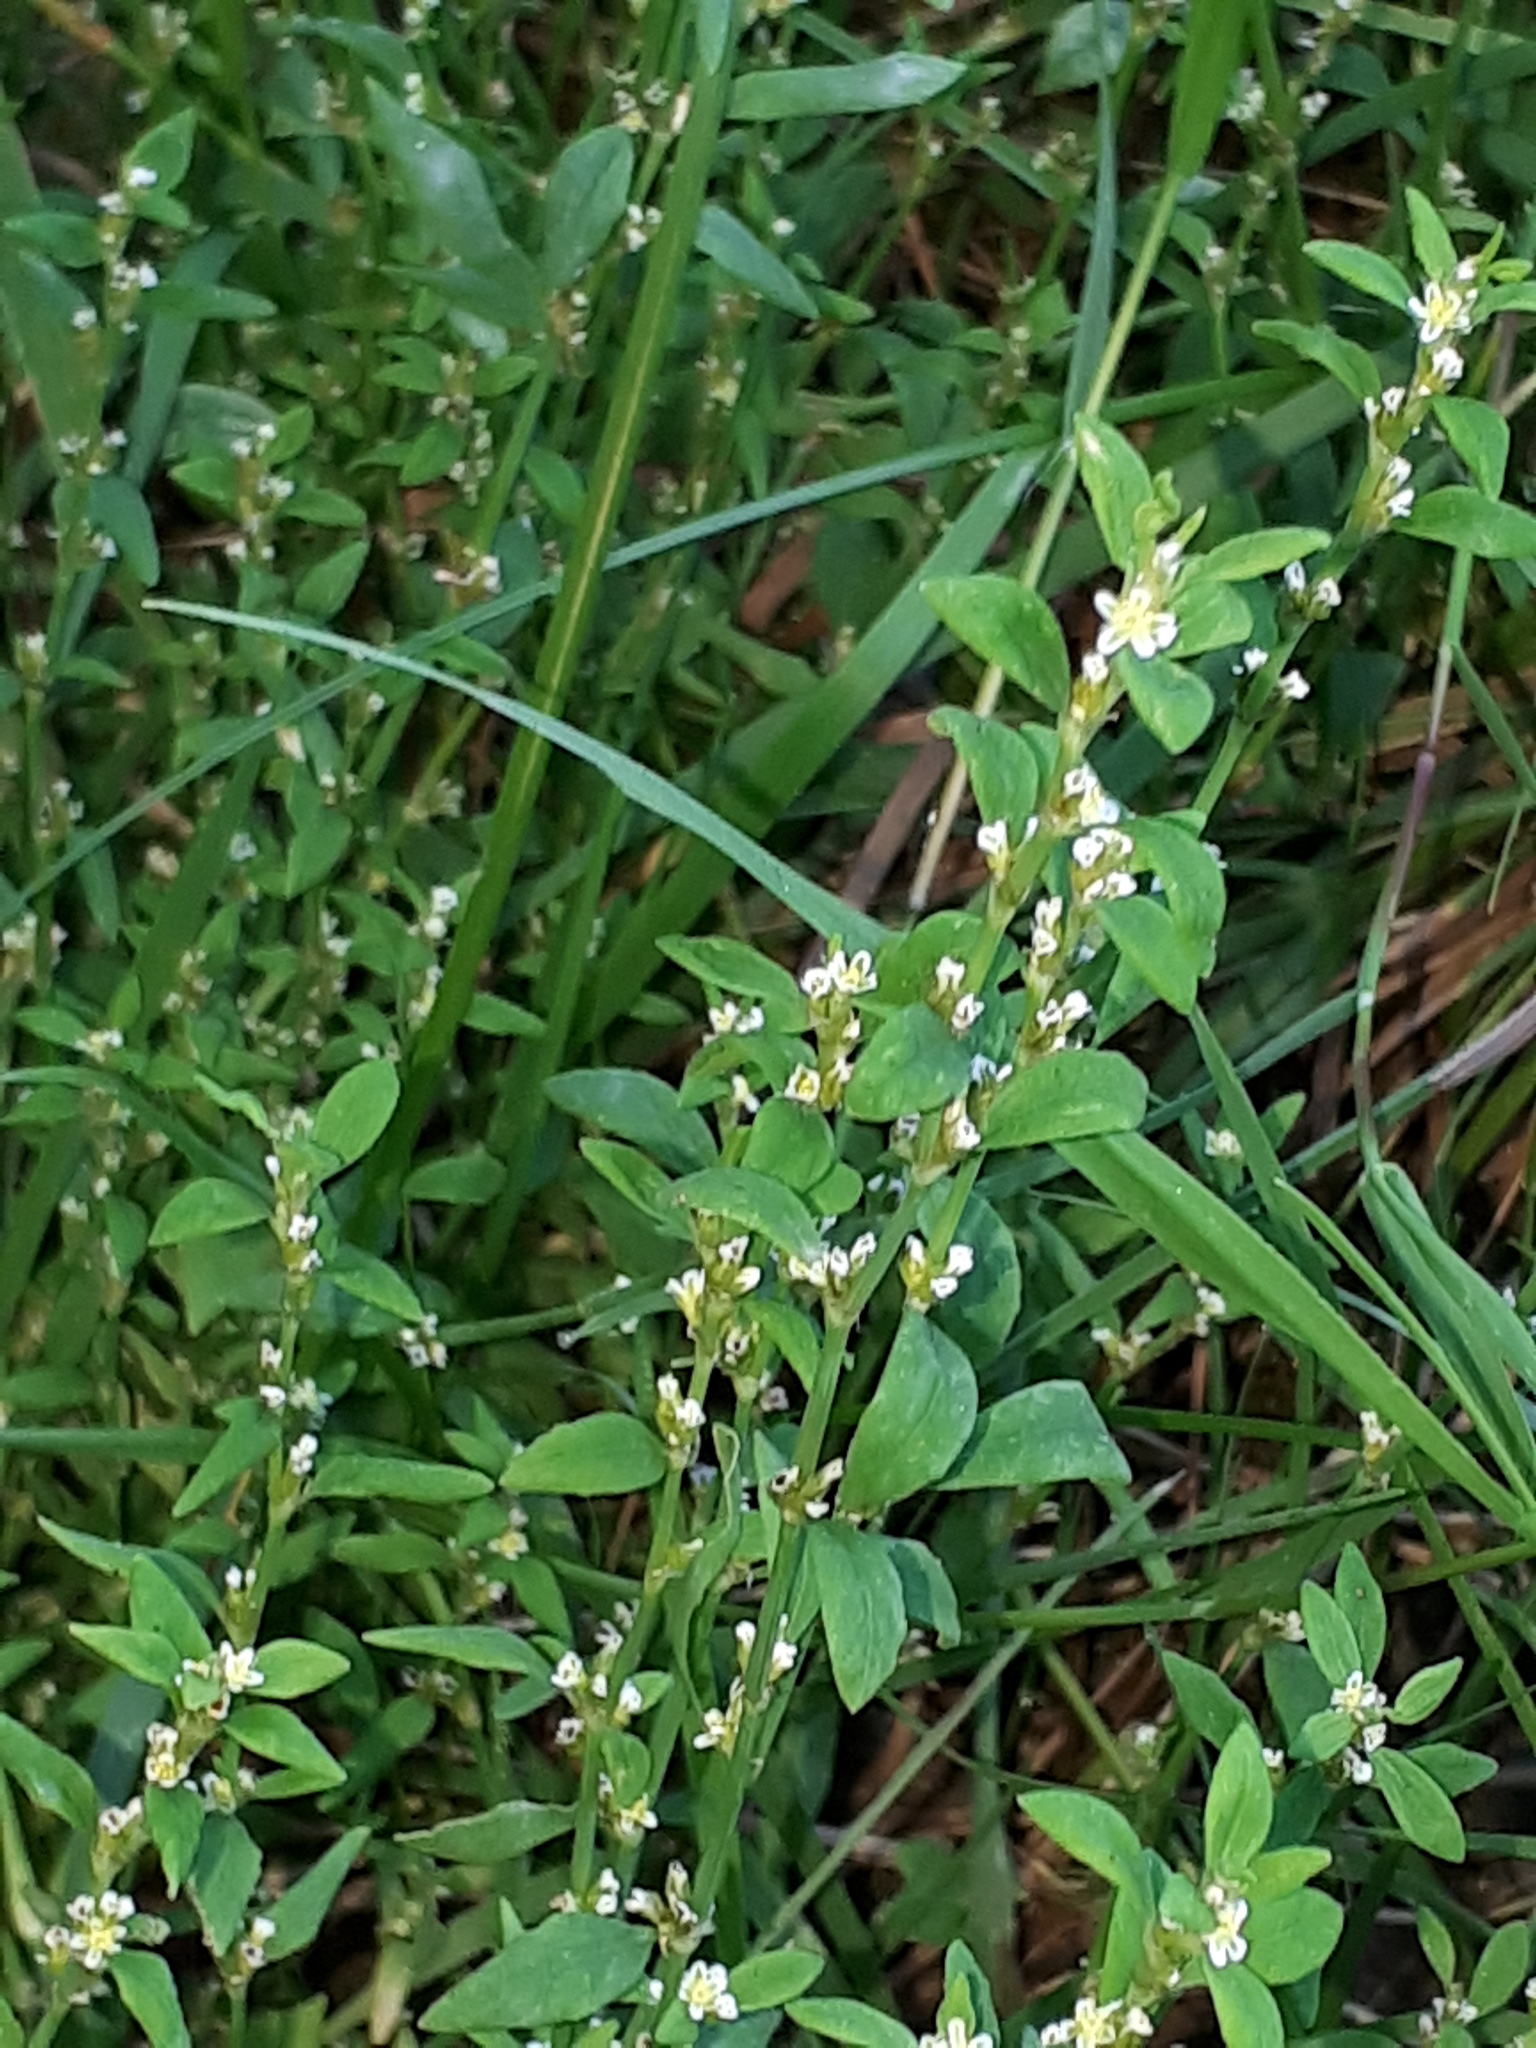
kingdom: Plantae
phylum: Tracheophyta
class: Magnoliopsida
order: Caryophyllales
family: Polygonaceae
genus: Polygonum
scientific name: Polygonum aviculare
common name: Prostrate knotweed
